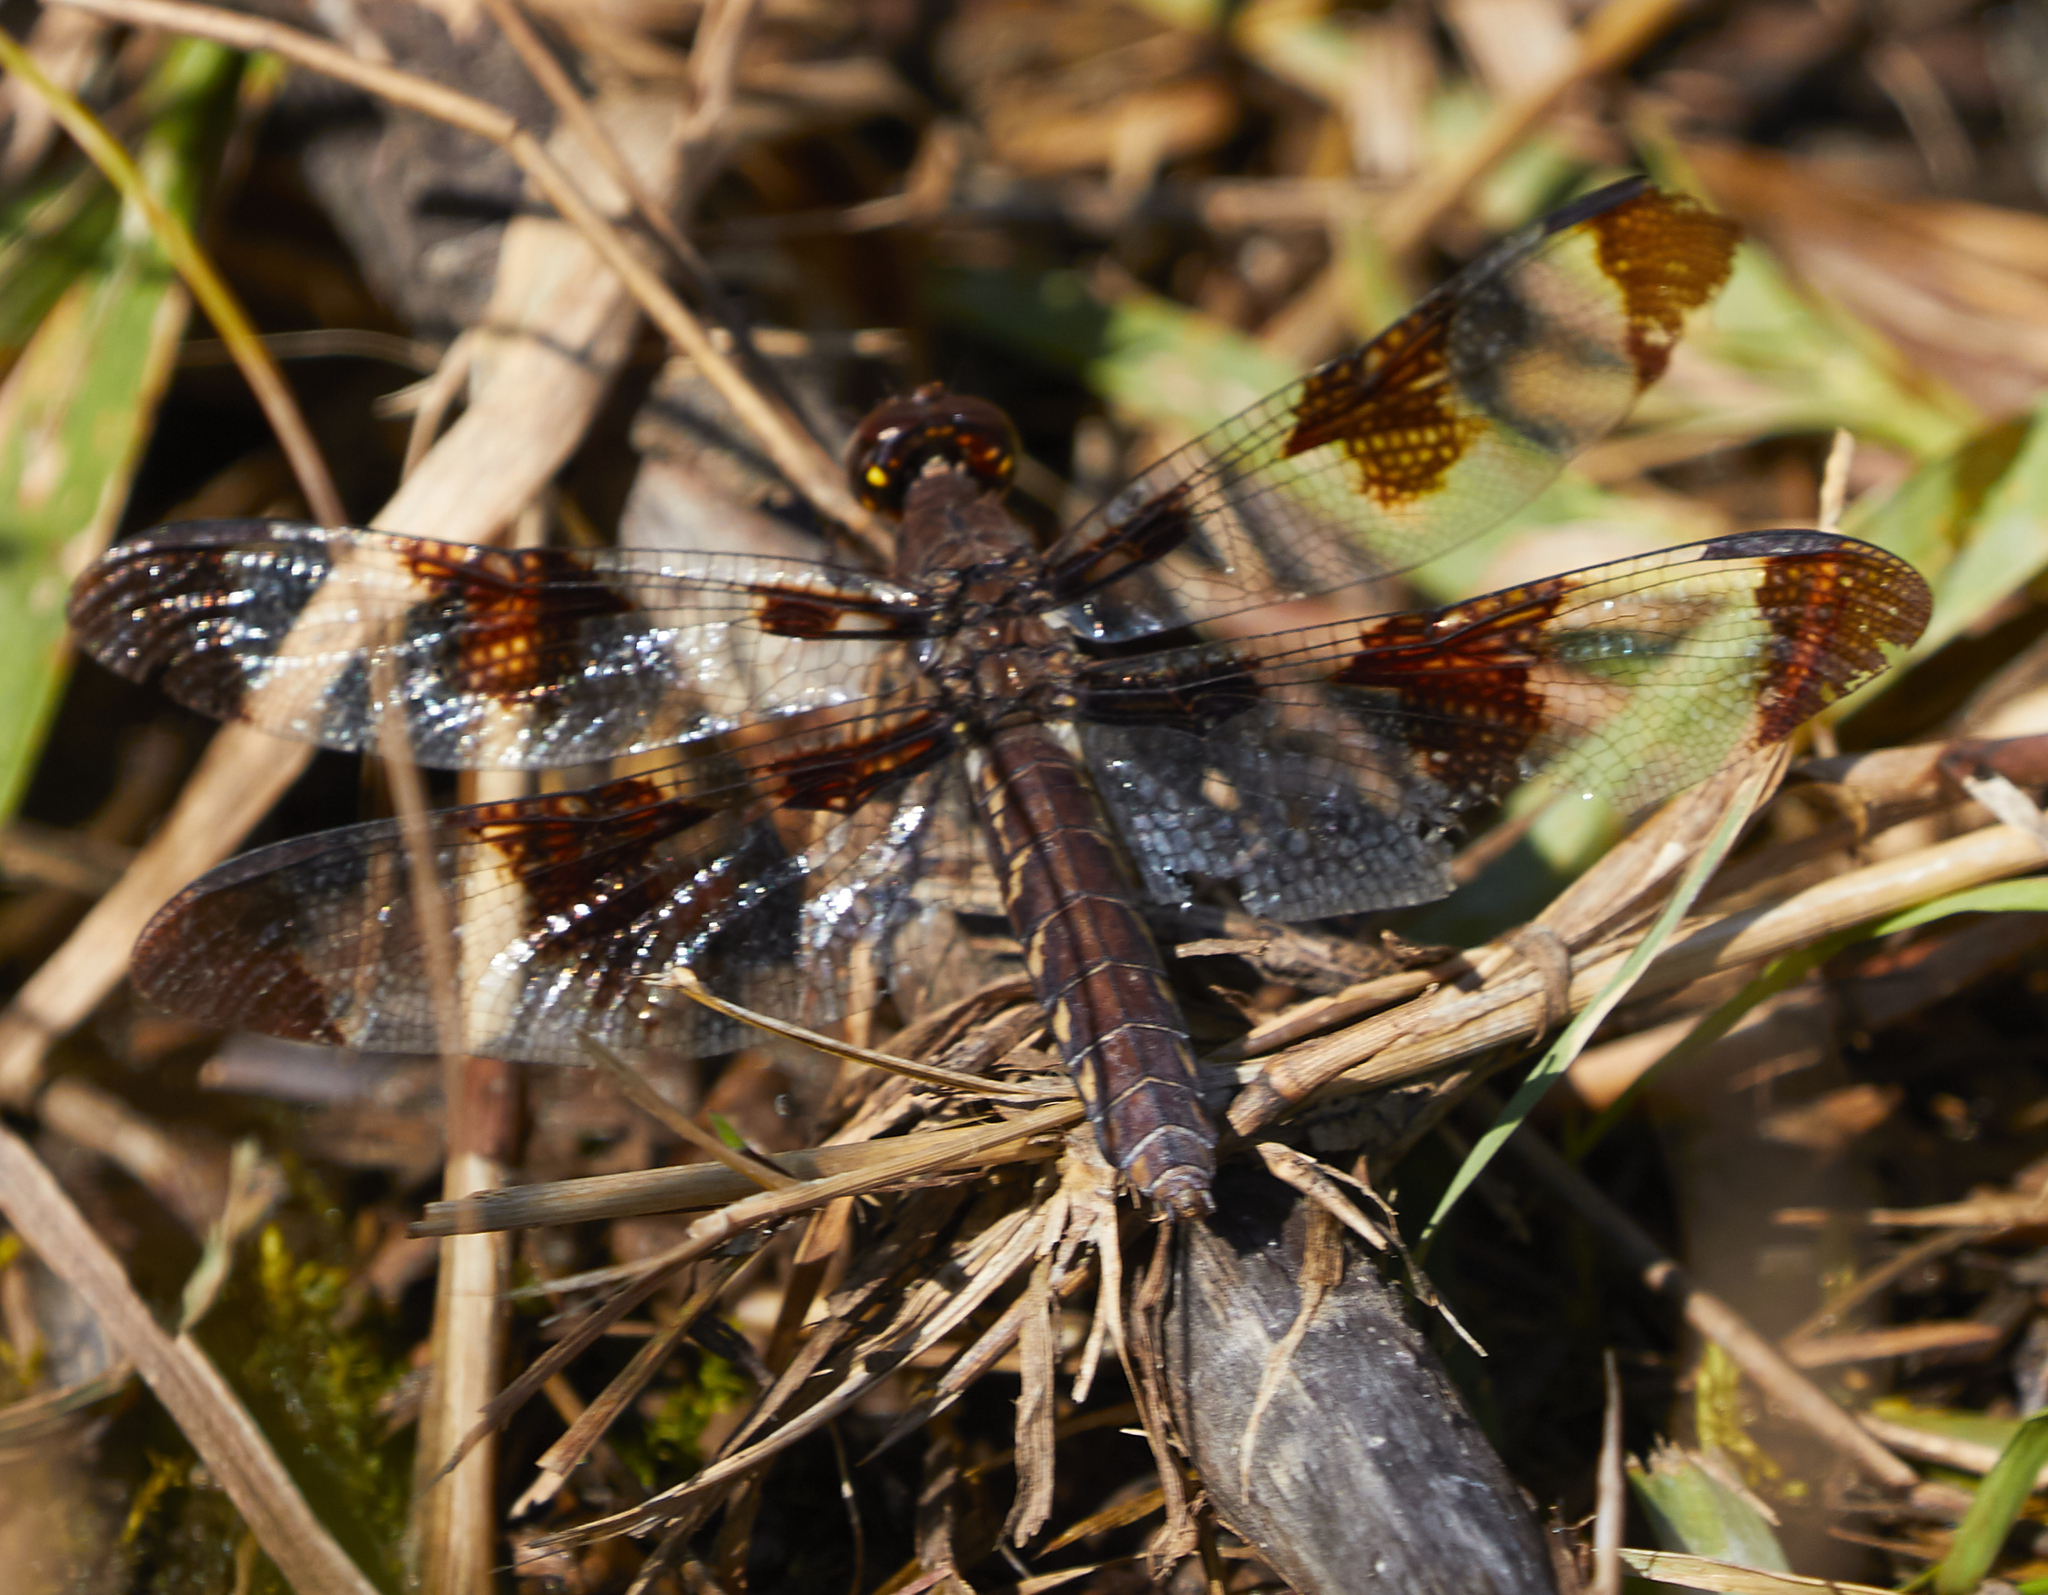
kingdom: Animalia
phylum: Arthropoda
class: Insecta
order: Odonata
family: Libellulidae
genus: Plathemis
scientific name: Plathemis lydia
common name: Common whitetail
